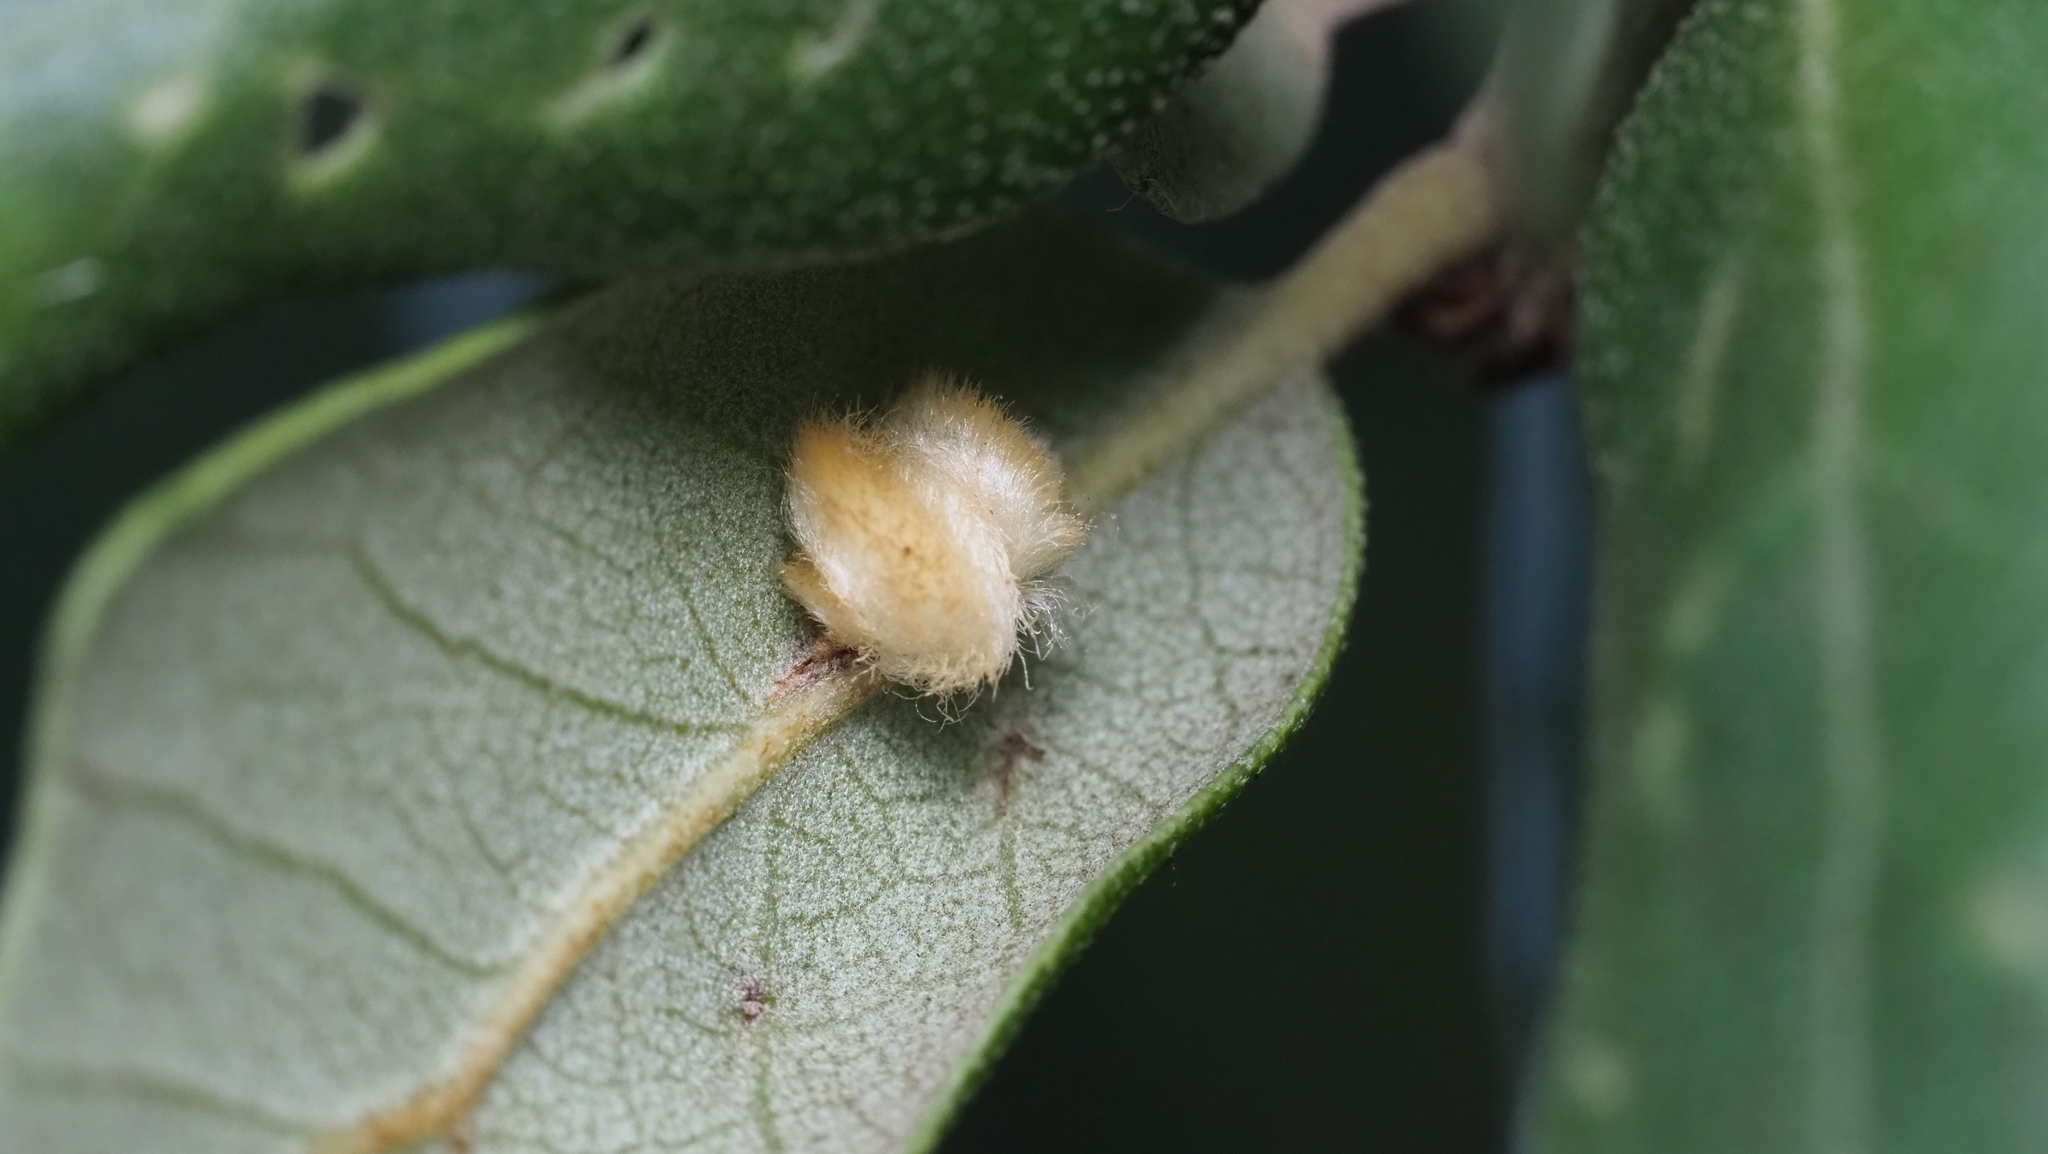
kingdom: Animalia
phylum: Arthropoda
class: Insecta
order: Hymenoptera
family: Cynipidae
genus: Andricus
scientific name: Andricus Druon quercuslanigerum
